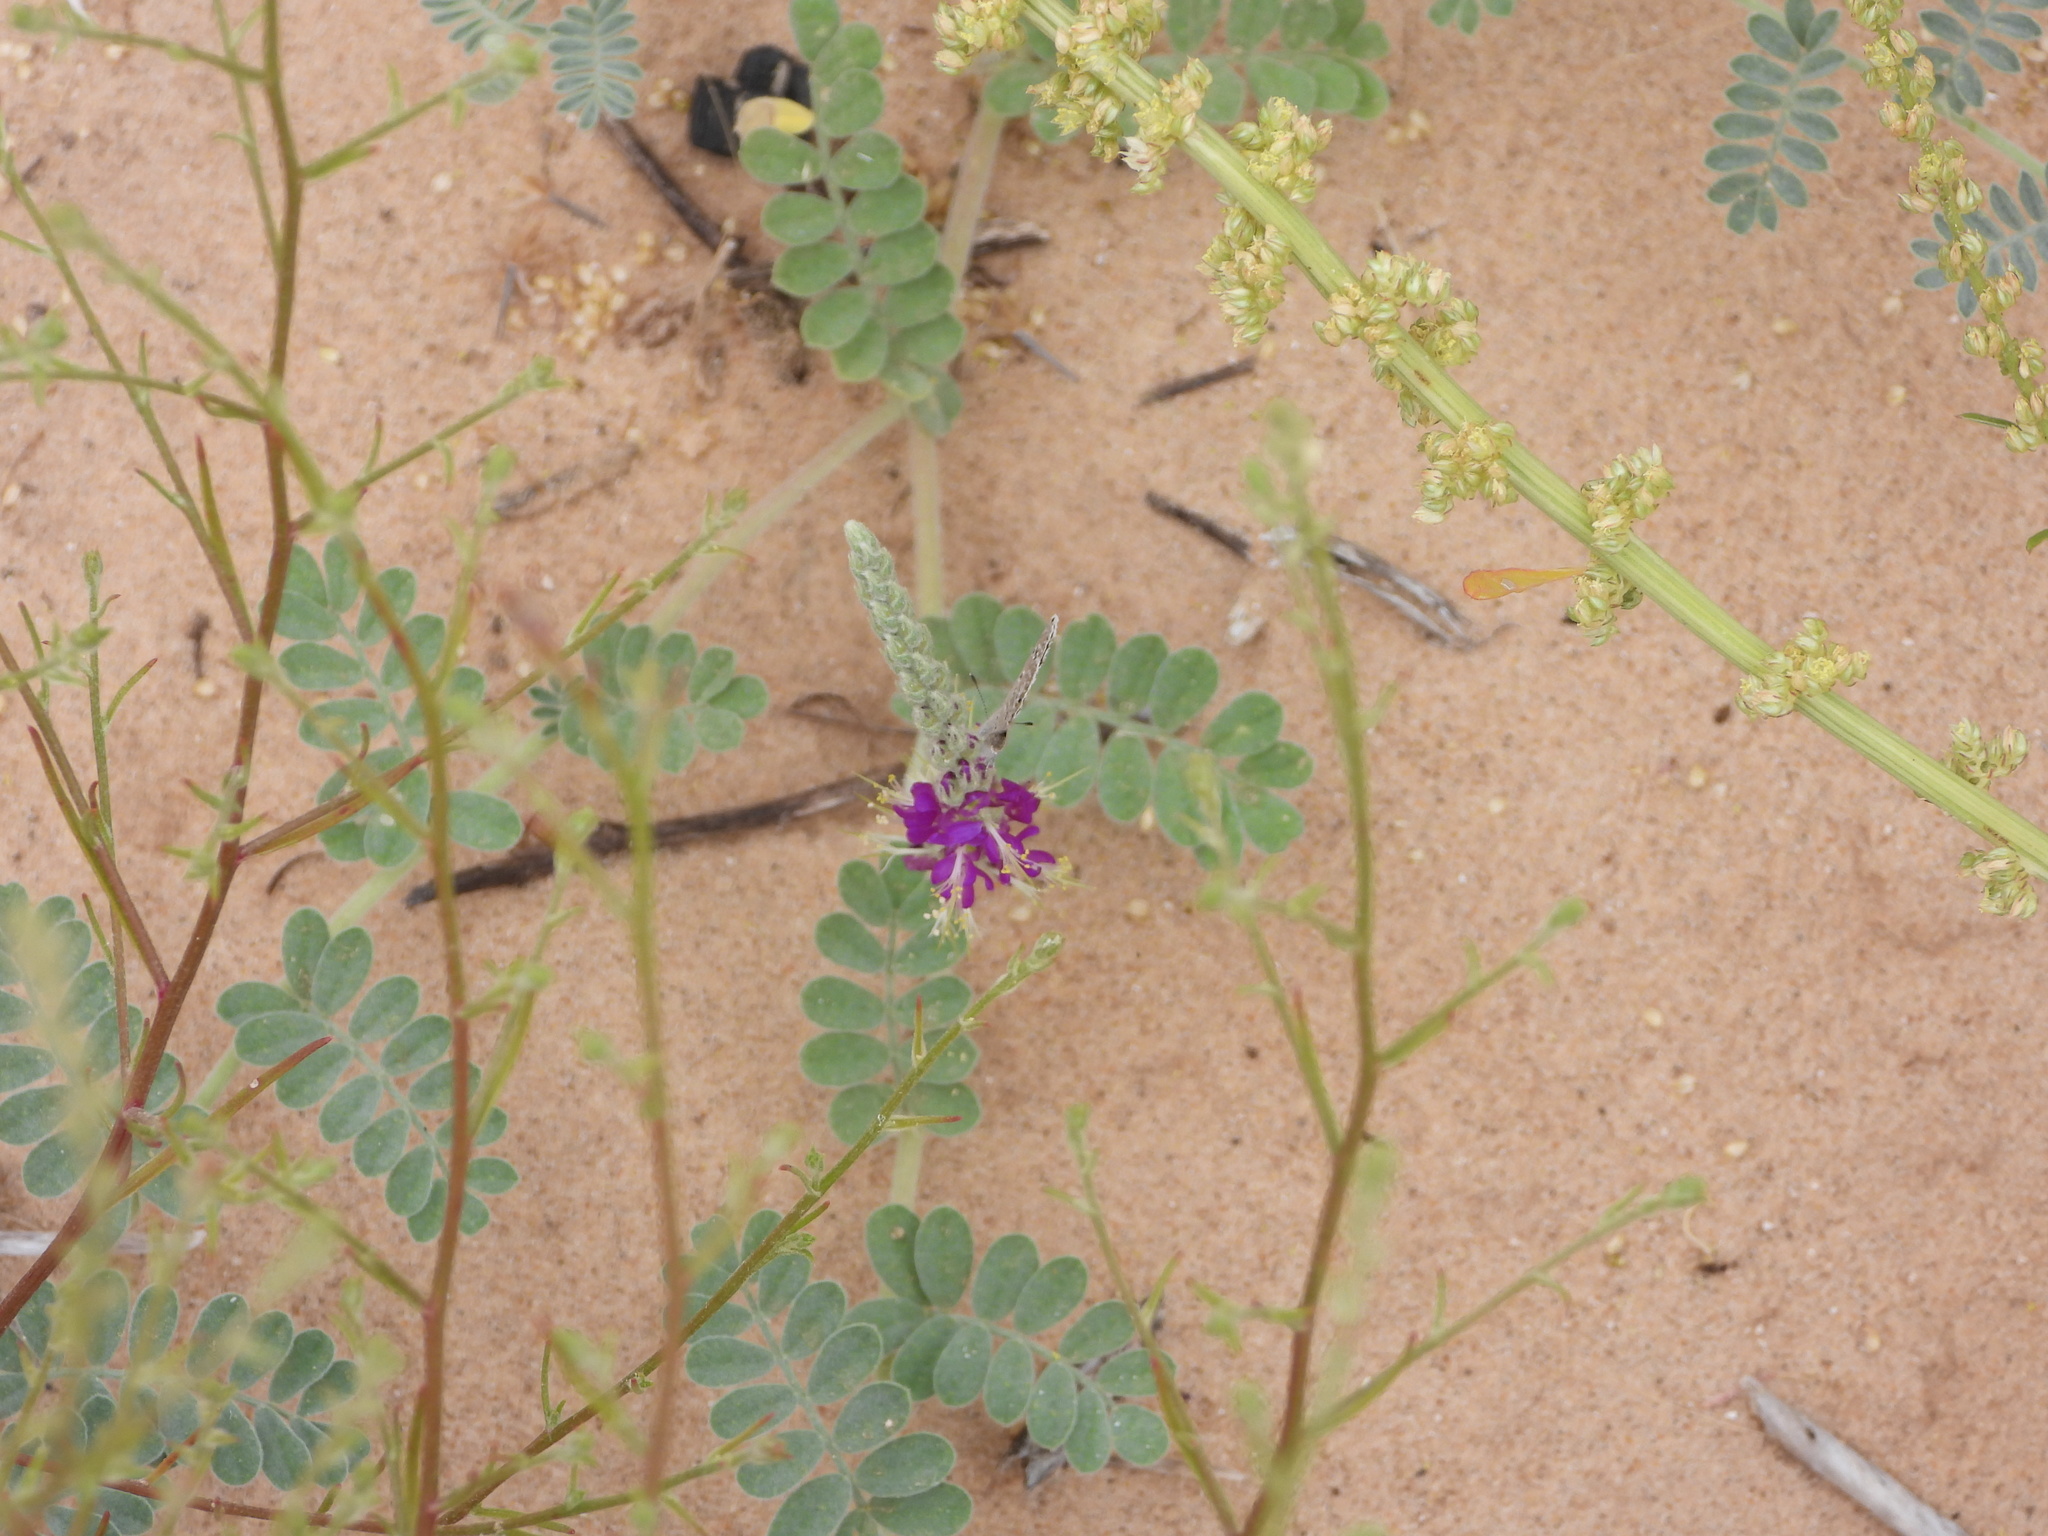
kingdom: Animalia
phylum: Arthropoda
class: Insecta
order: Lepidoptera
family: Lycaenidae
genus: Echinargus
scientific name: Echinargus isola
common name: Reakirt's blue
